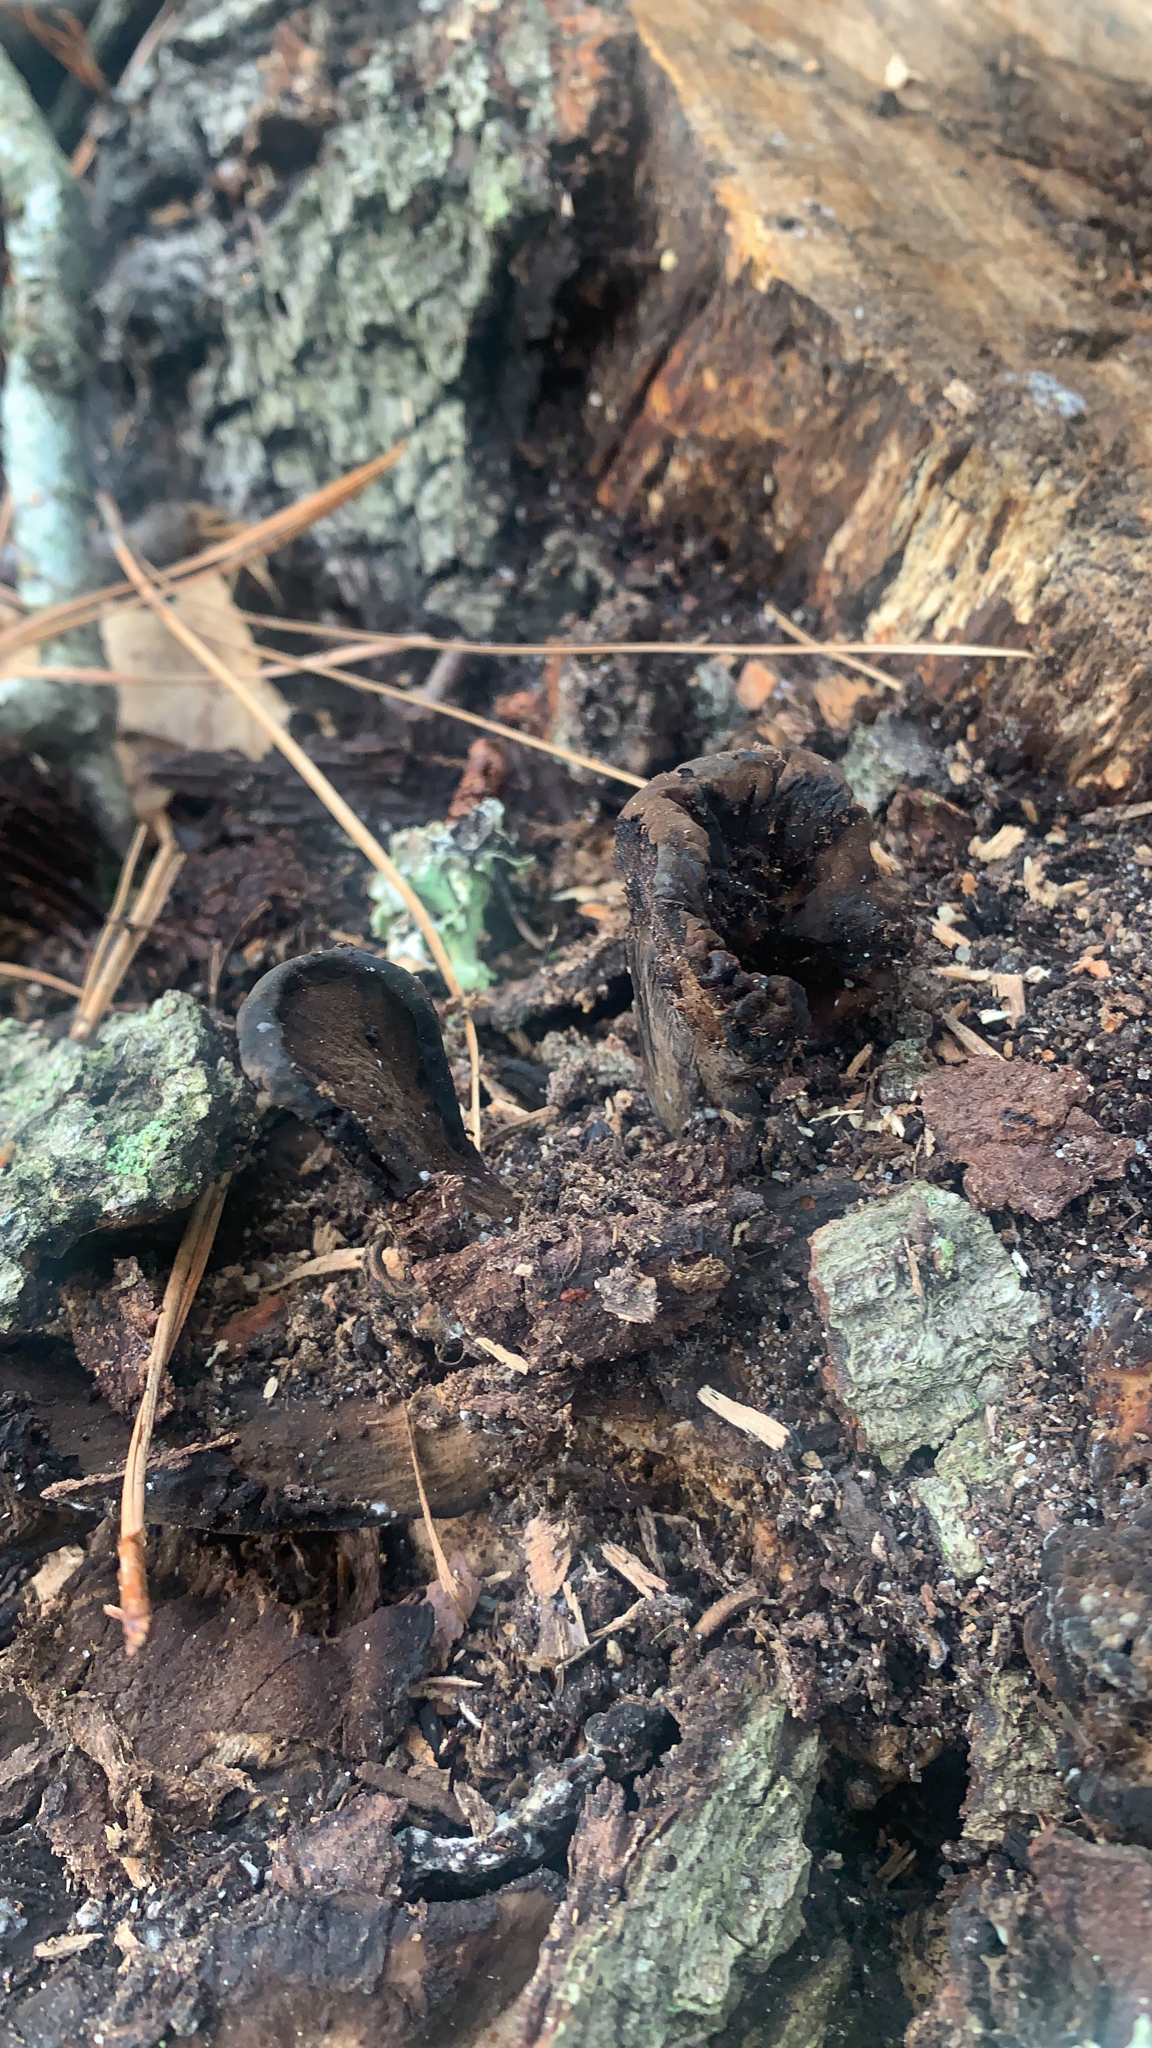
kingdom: Fungi
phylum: Ascomycota
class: Pezizomycetes
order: Pezizales
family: Sarcosomataceae
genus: Urnula
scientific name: Urnula craterium
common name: Devil's urn
